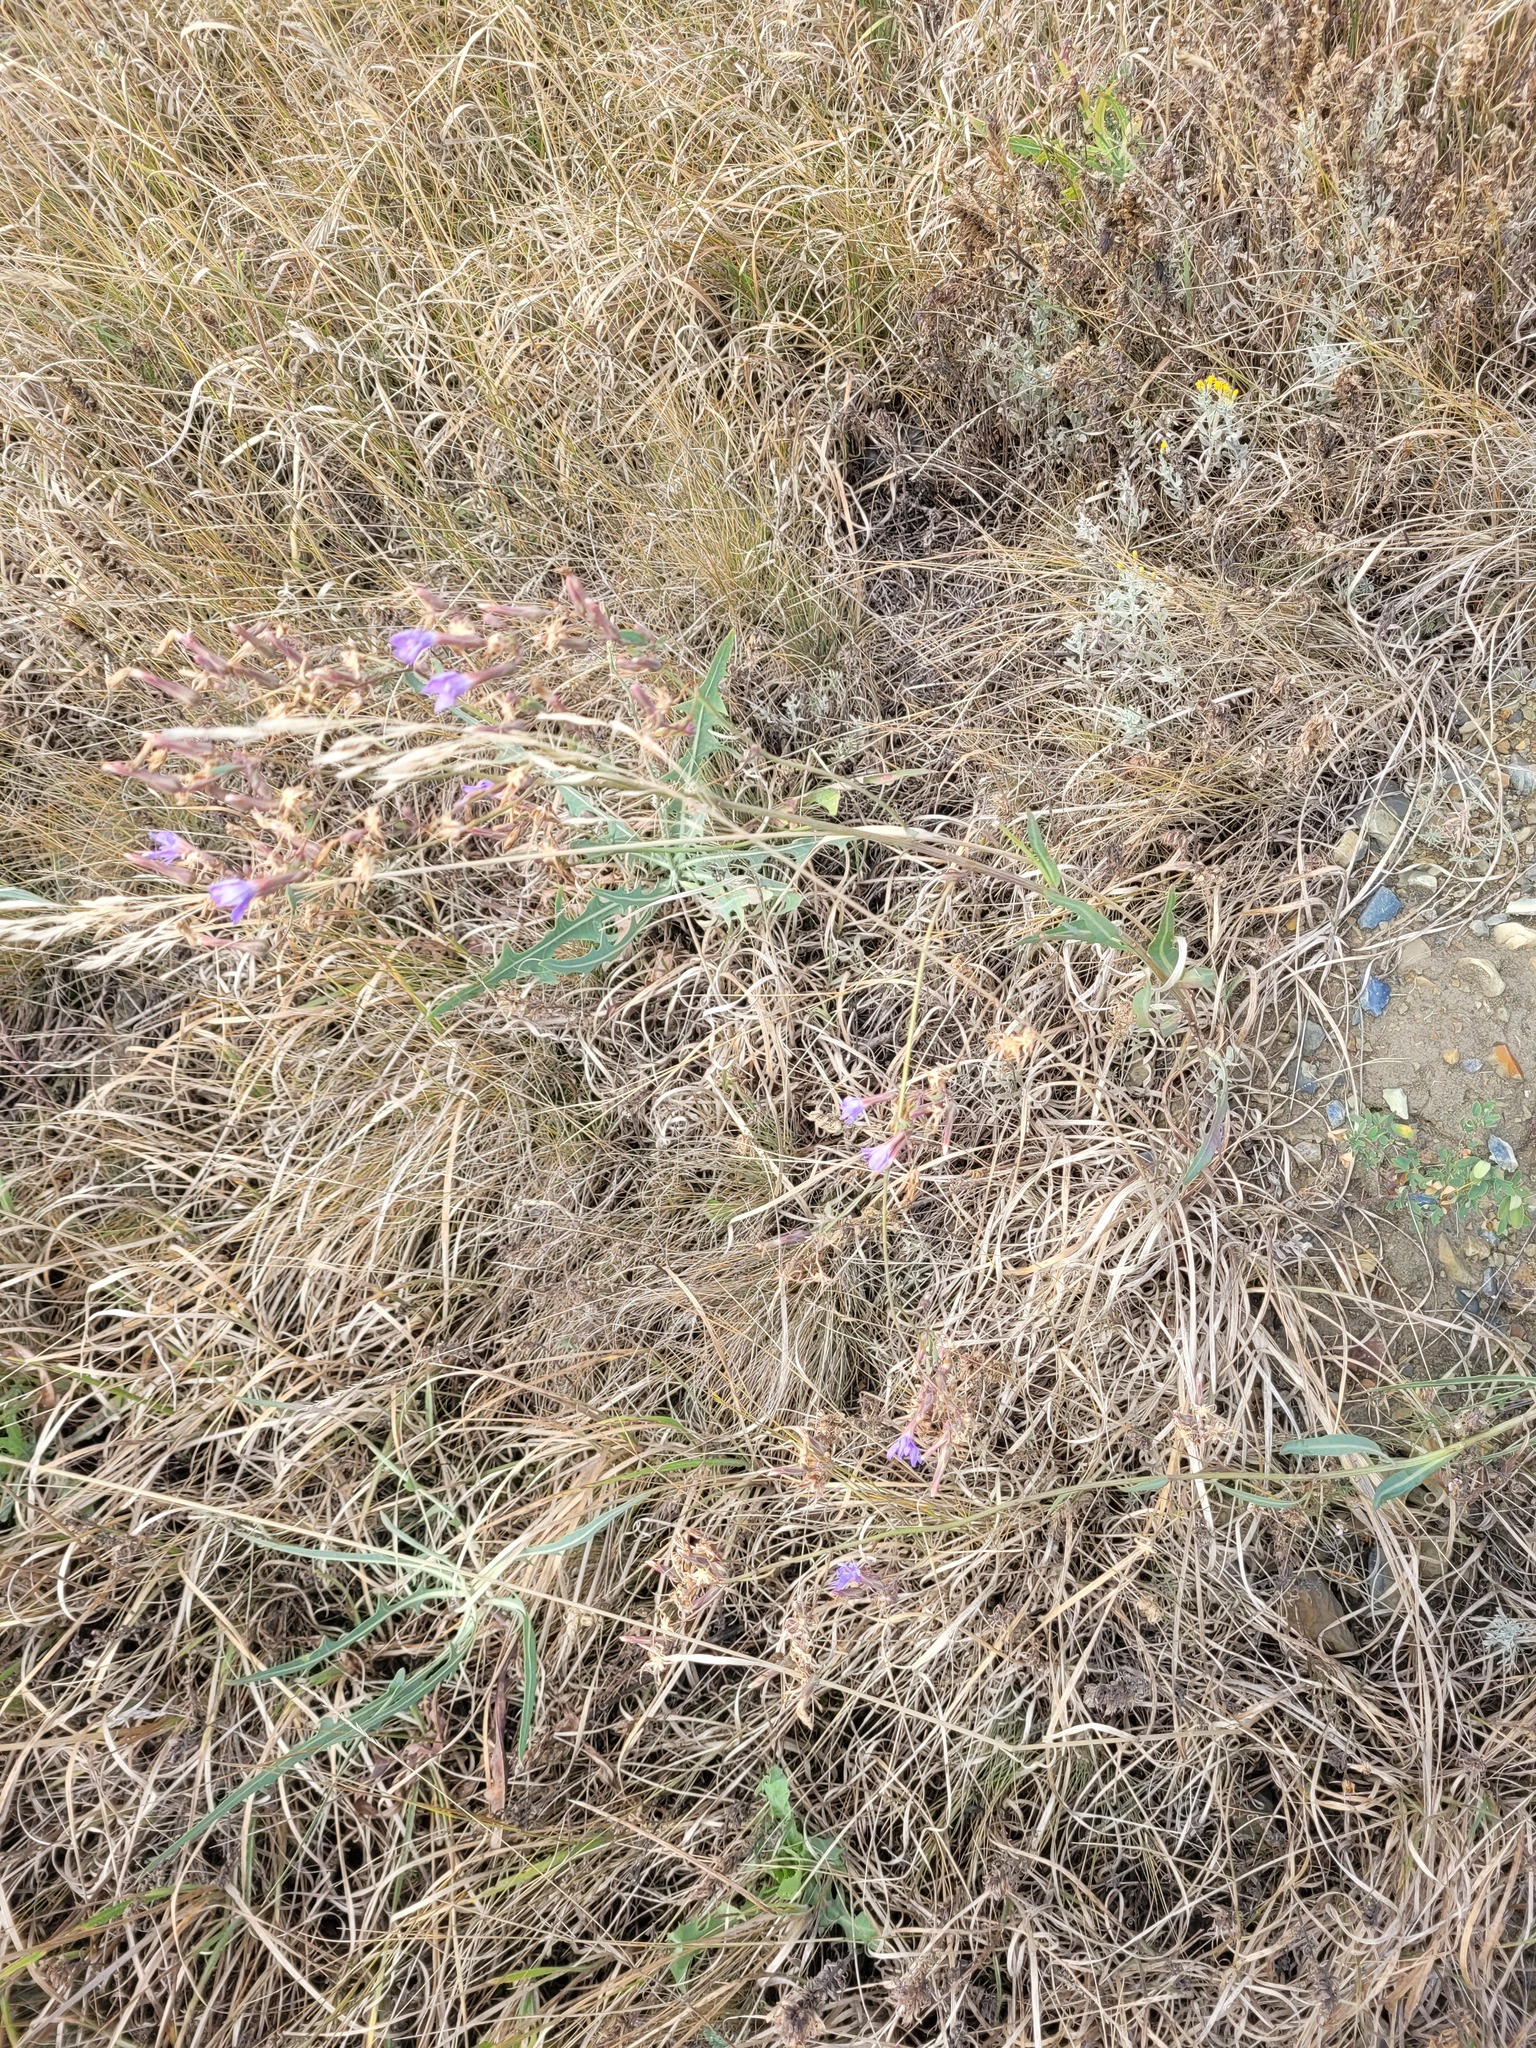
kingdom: Plantae
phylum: Tracheophyta
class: Magnoliopsida
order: Asterales
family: Asteraceae
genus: Lactuca
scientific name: Lactuca tatarica
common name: Blue lettuce
